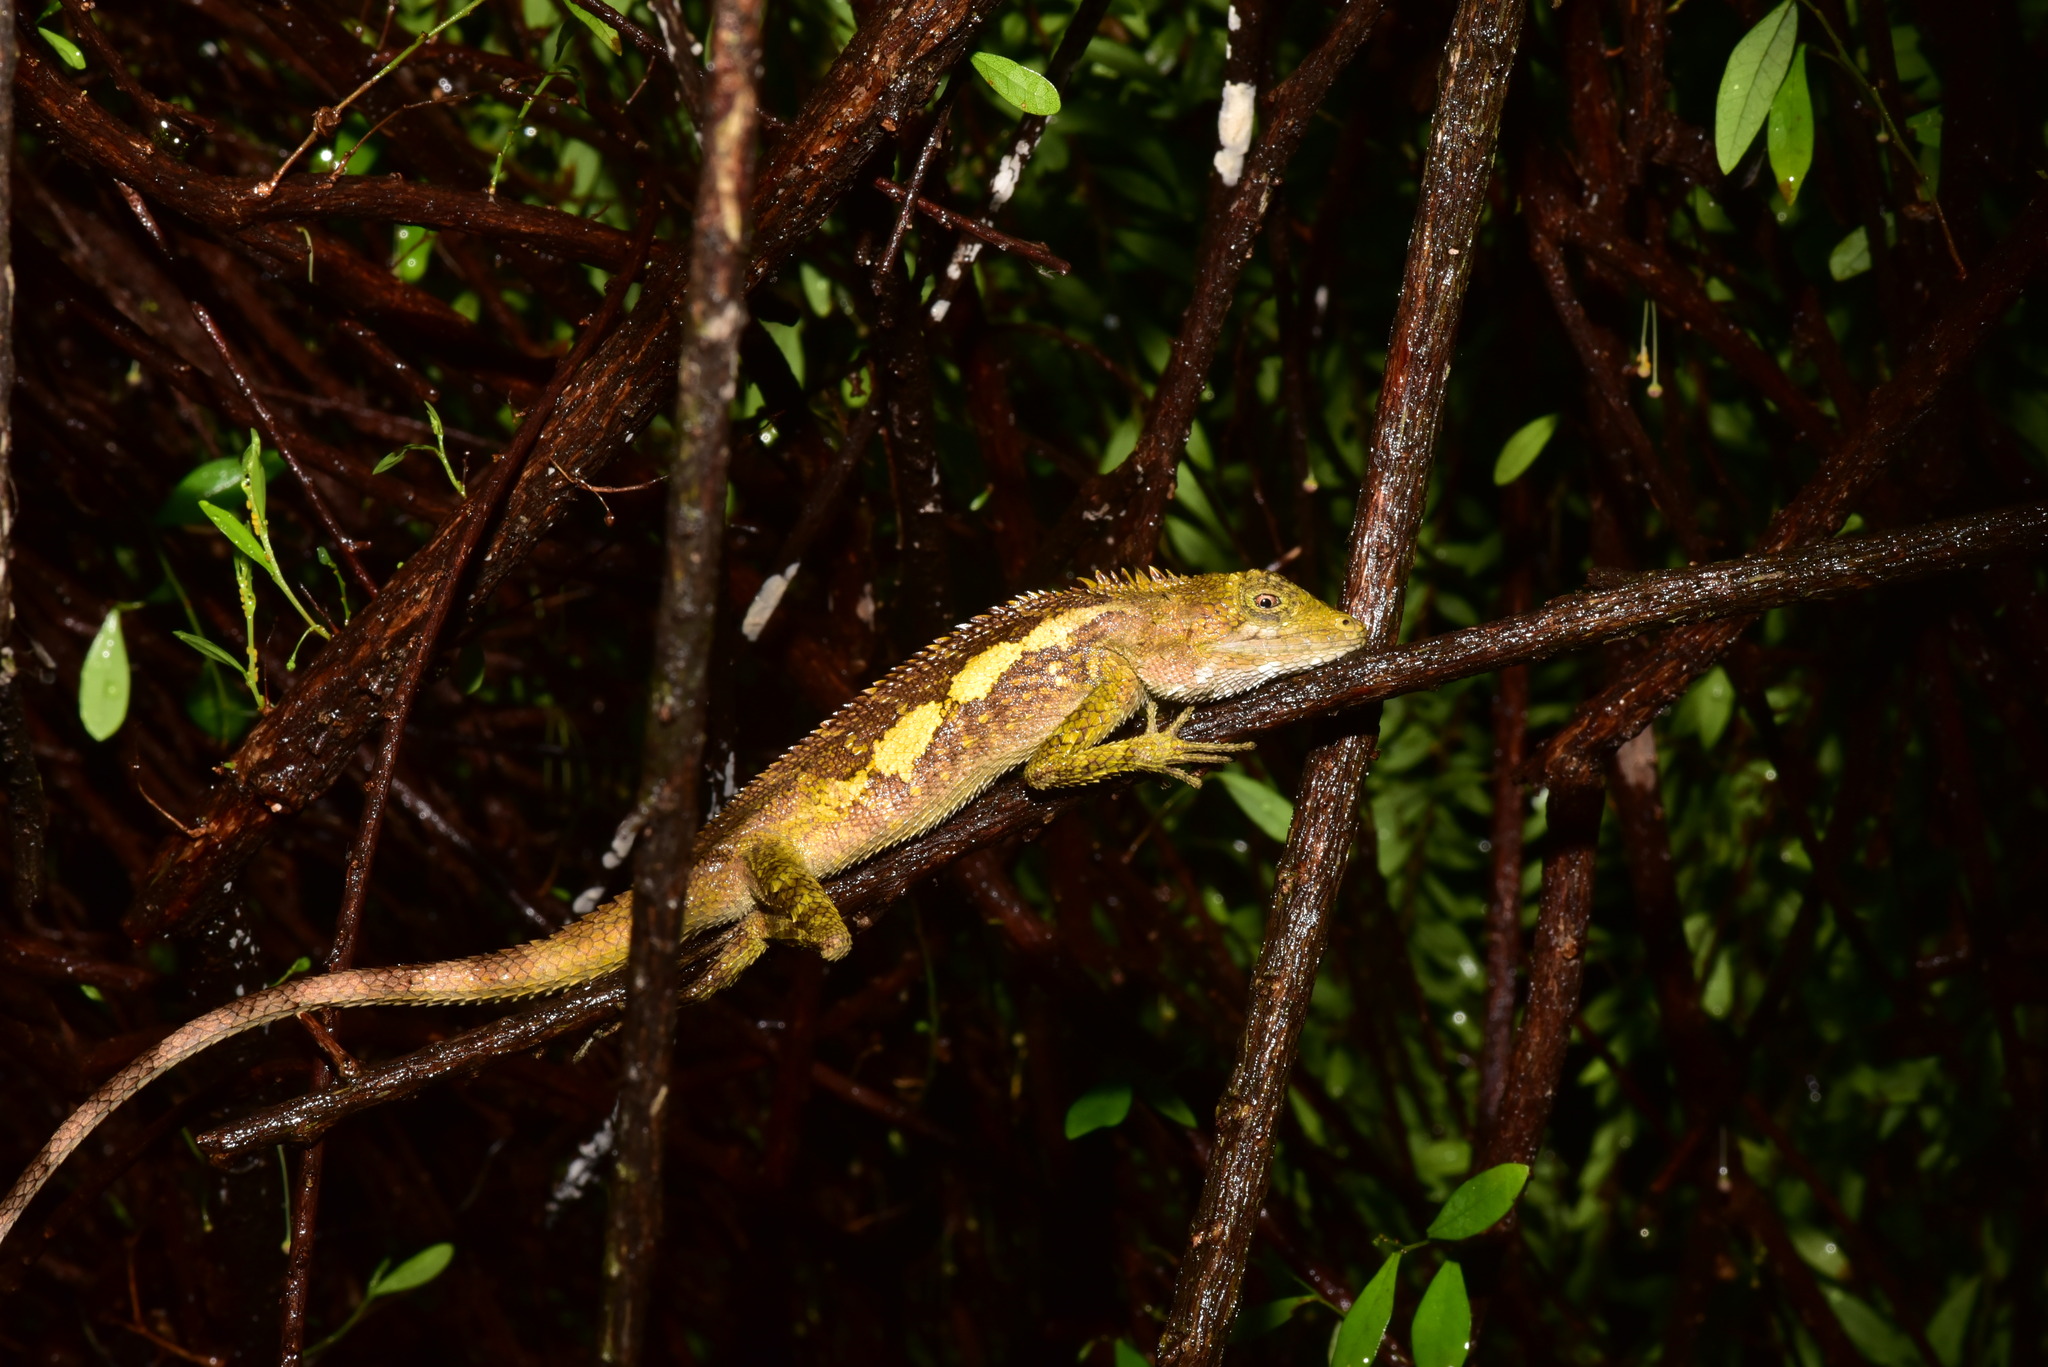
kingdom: Animalia
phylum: Chordata
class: Squamata
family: Agamidae
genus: Diploderma
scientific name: Diploderma swinhonis
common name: Taiwan japalure
